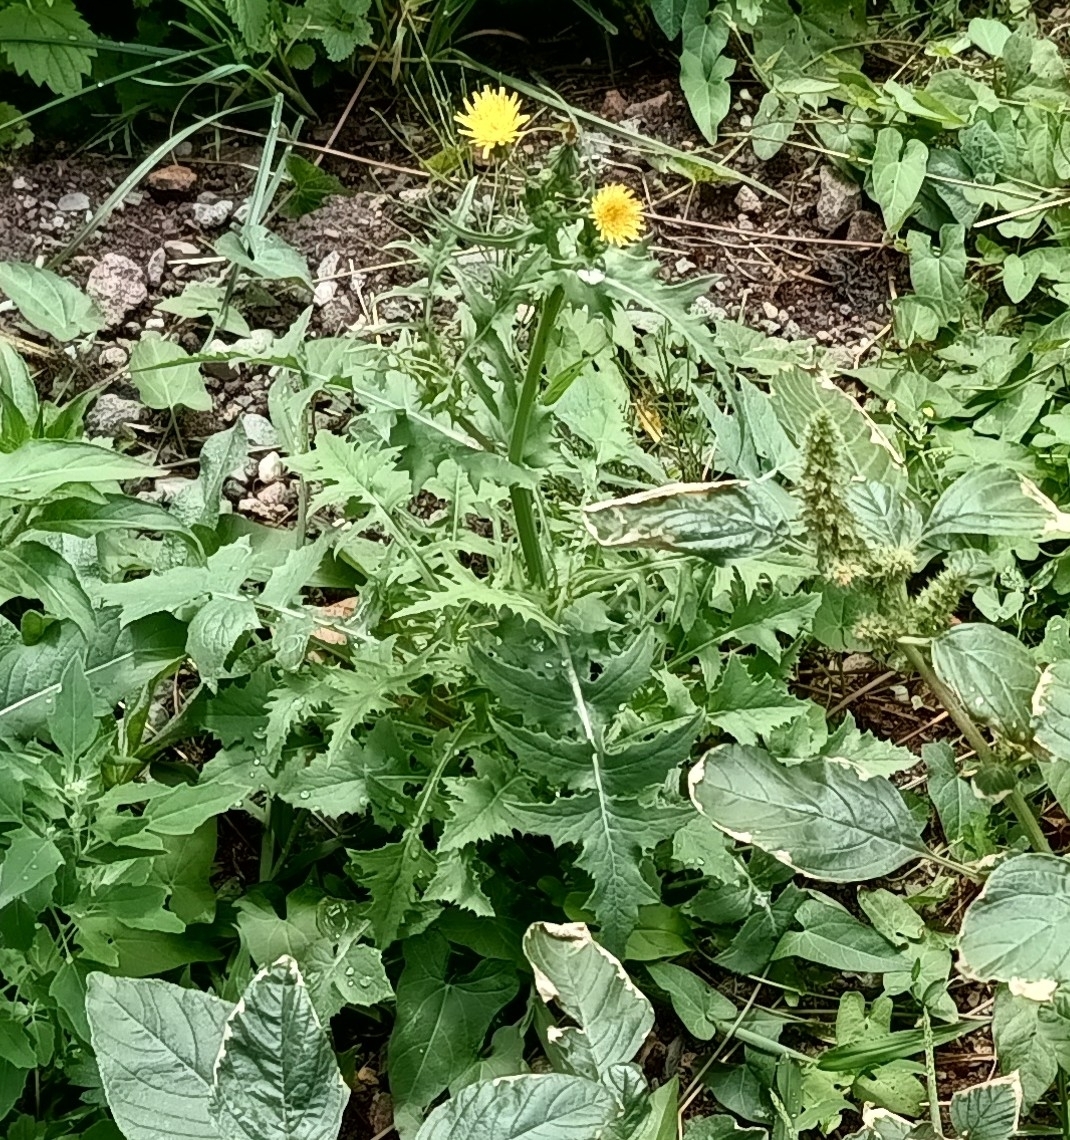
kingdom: Plantae
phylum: Tracheophyta
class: Magnoliopsida
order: Asterales
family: Asteraceae
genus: Sonchus
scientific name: Sonchus oleraceus
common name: Common sowthistle
